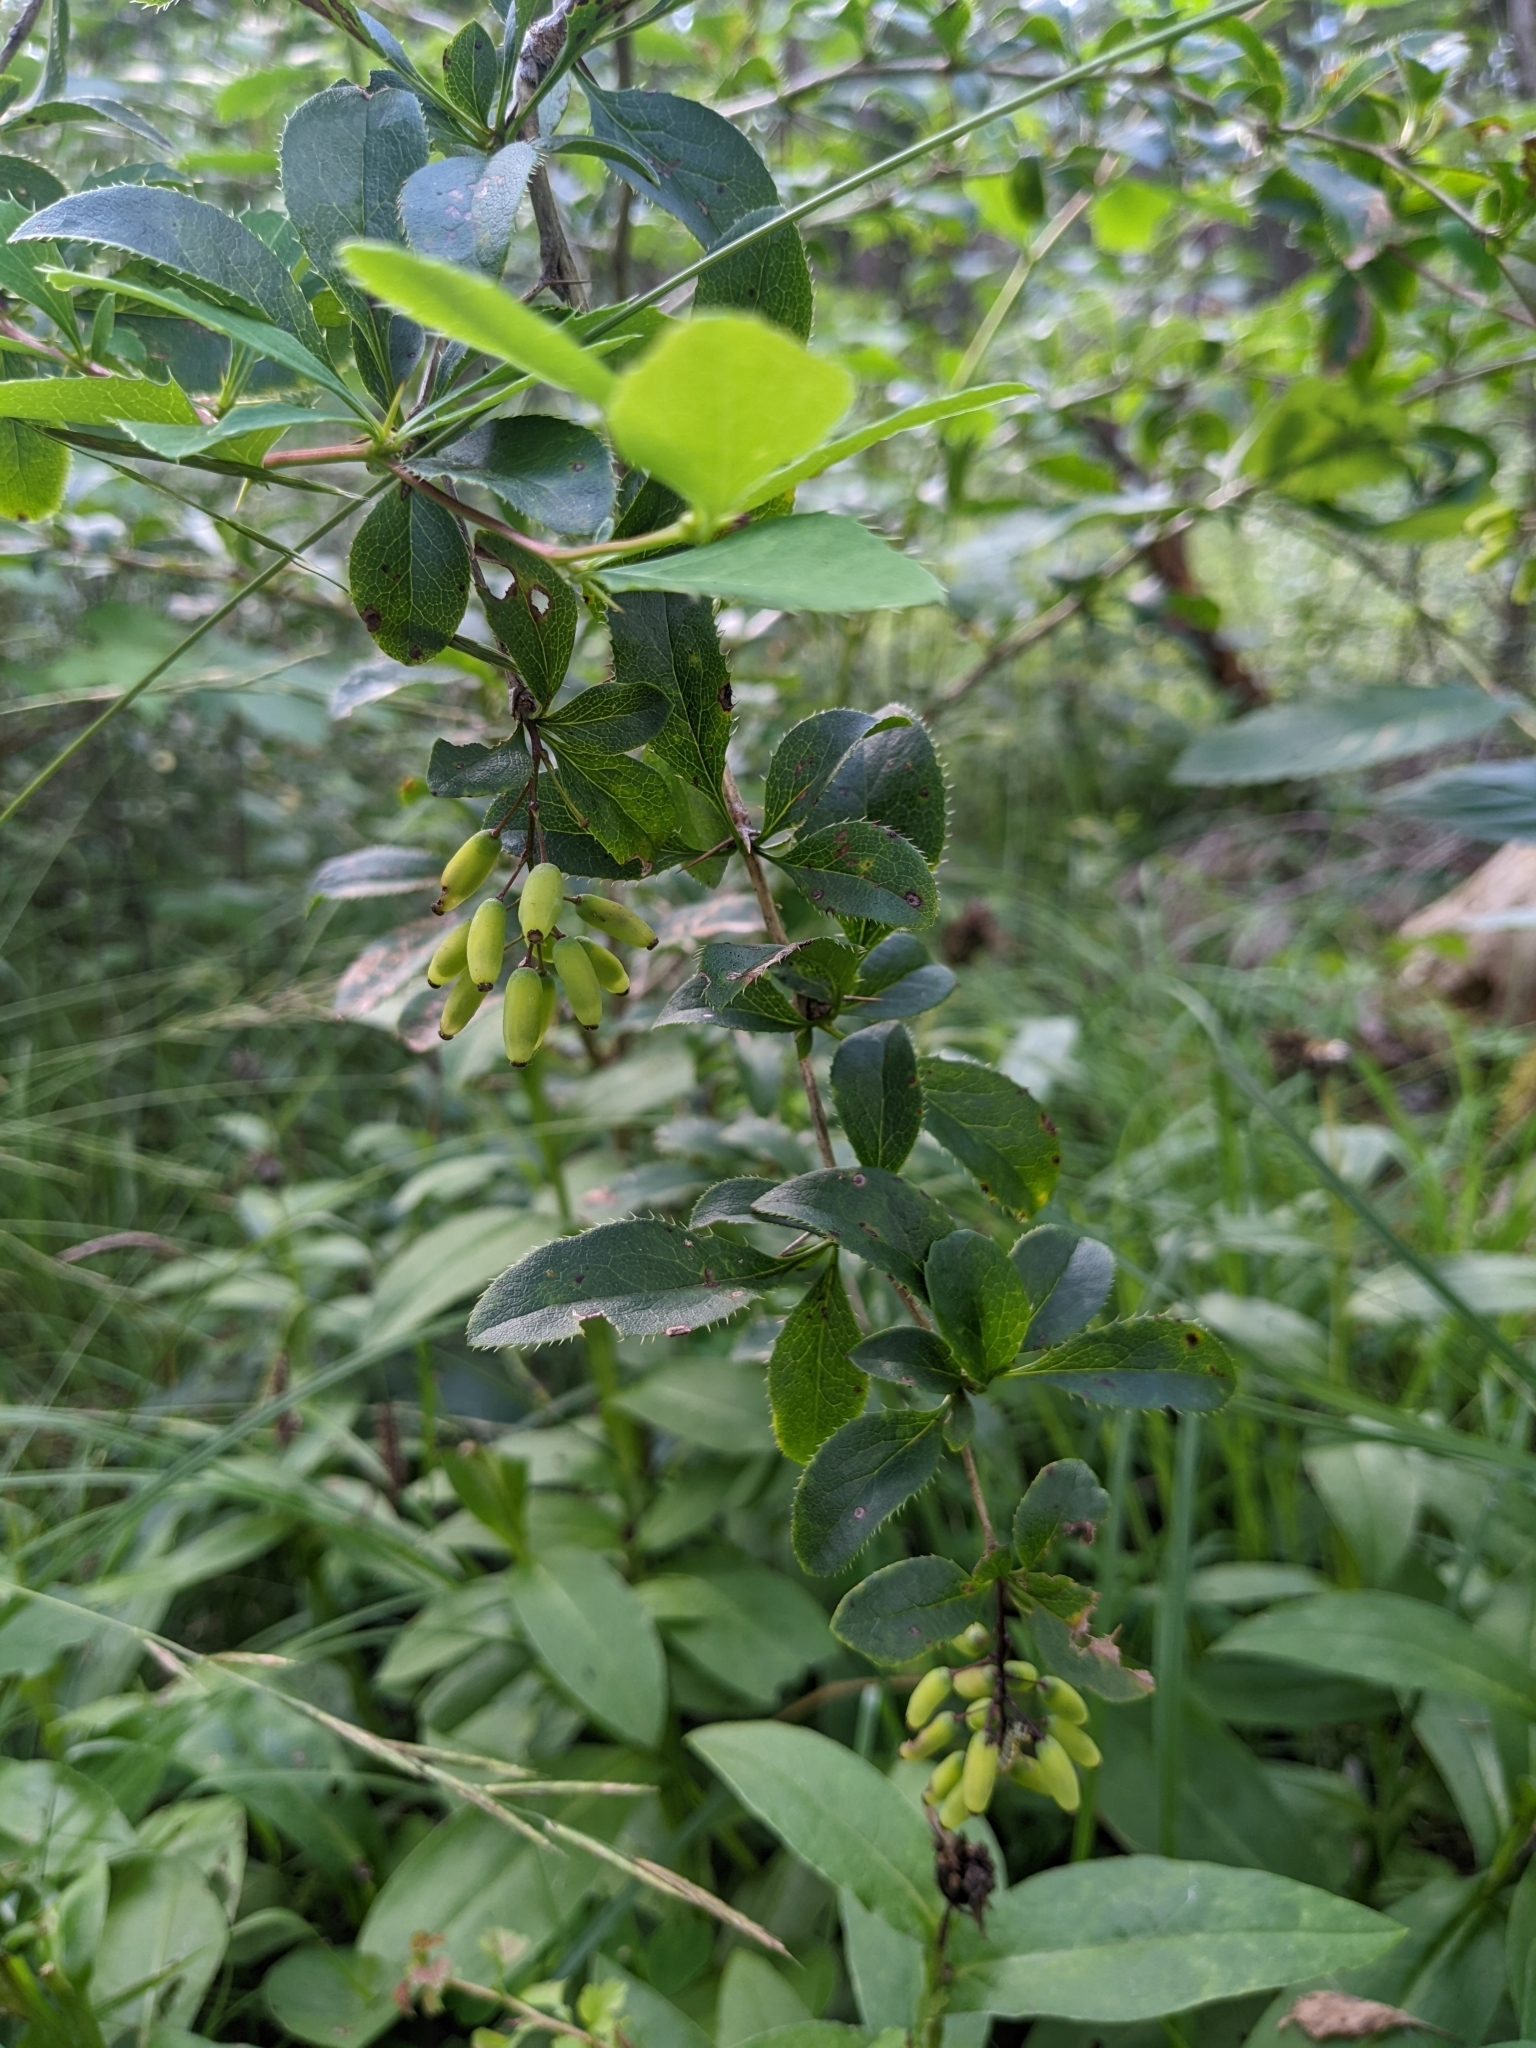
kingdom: Plantae
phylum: Tracheophyta
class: Magnoliopsida
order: Ranunculales
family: Berberidaceae
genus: Berberis
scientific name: Berberis vulgaris
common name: Barberry
